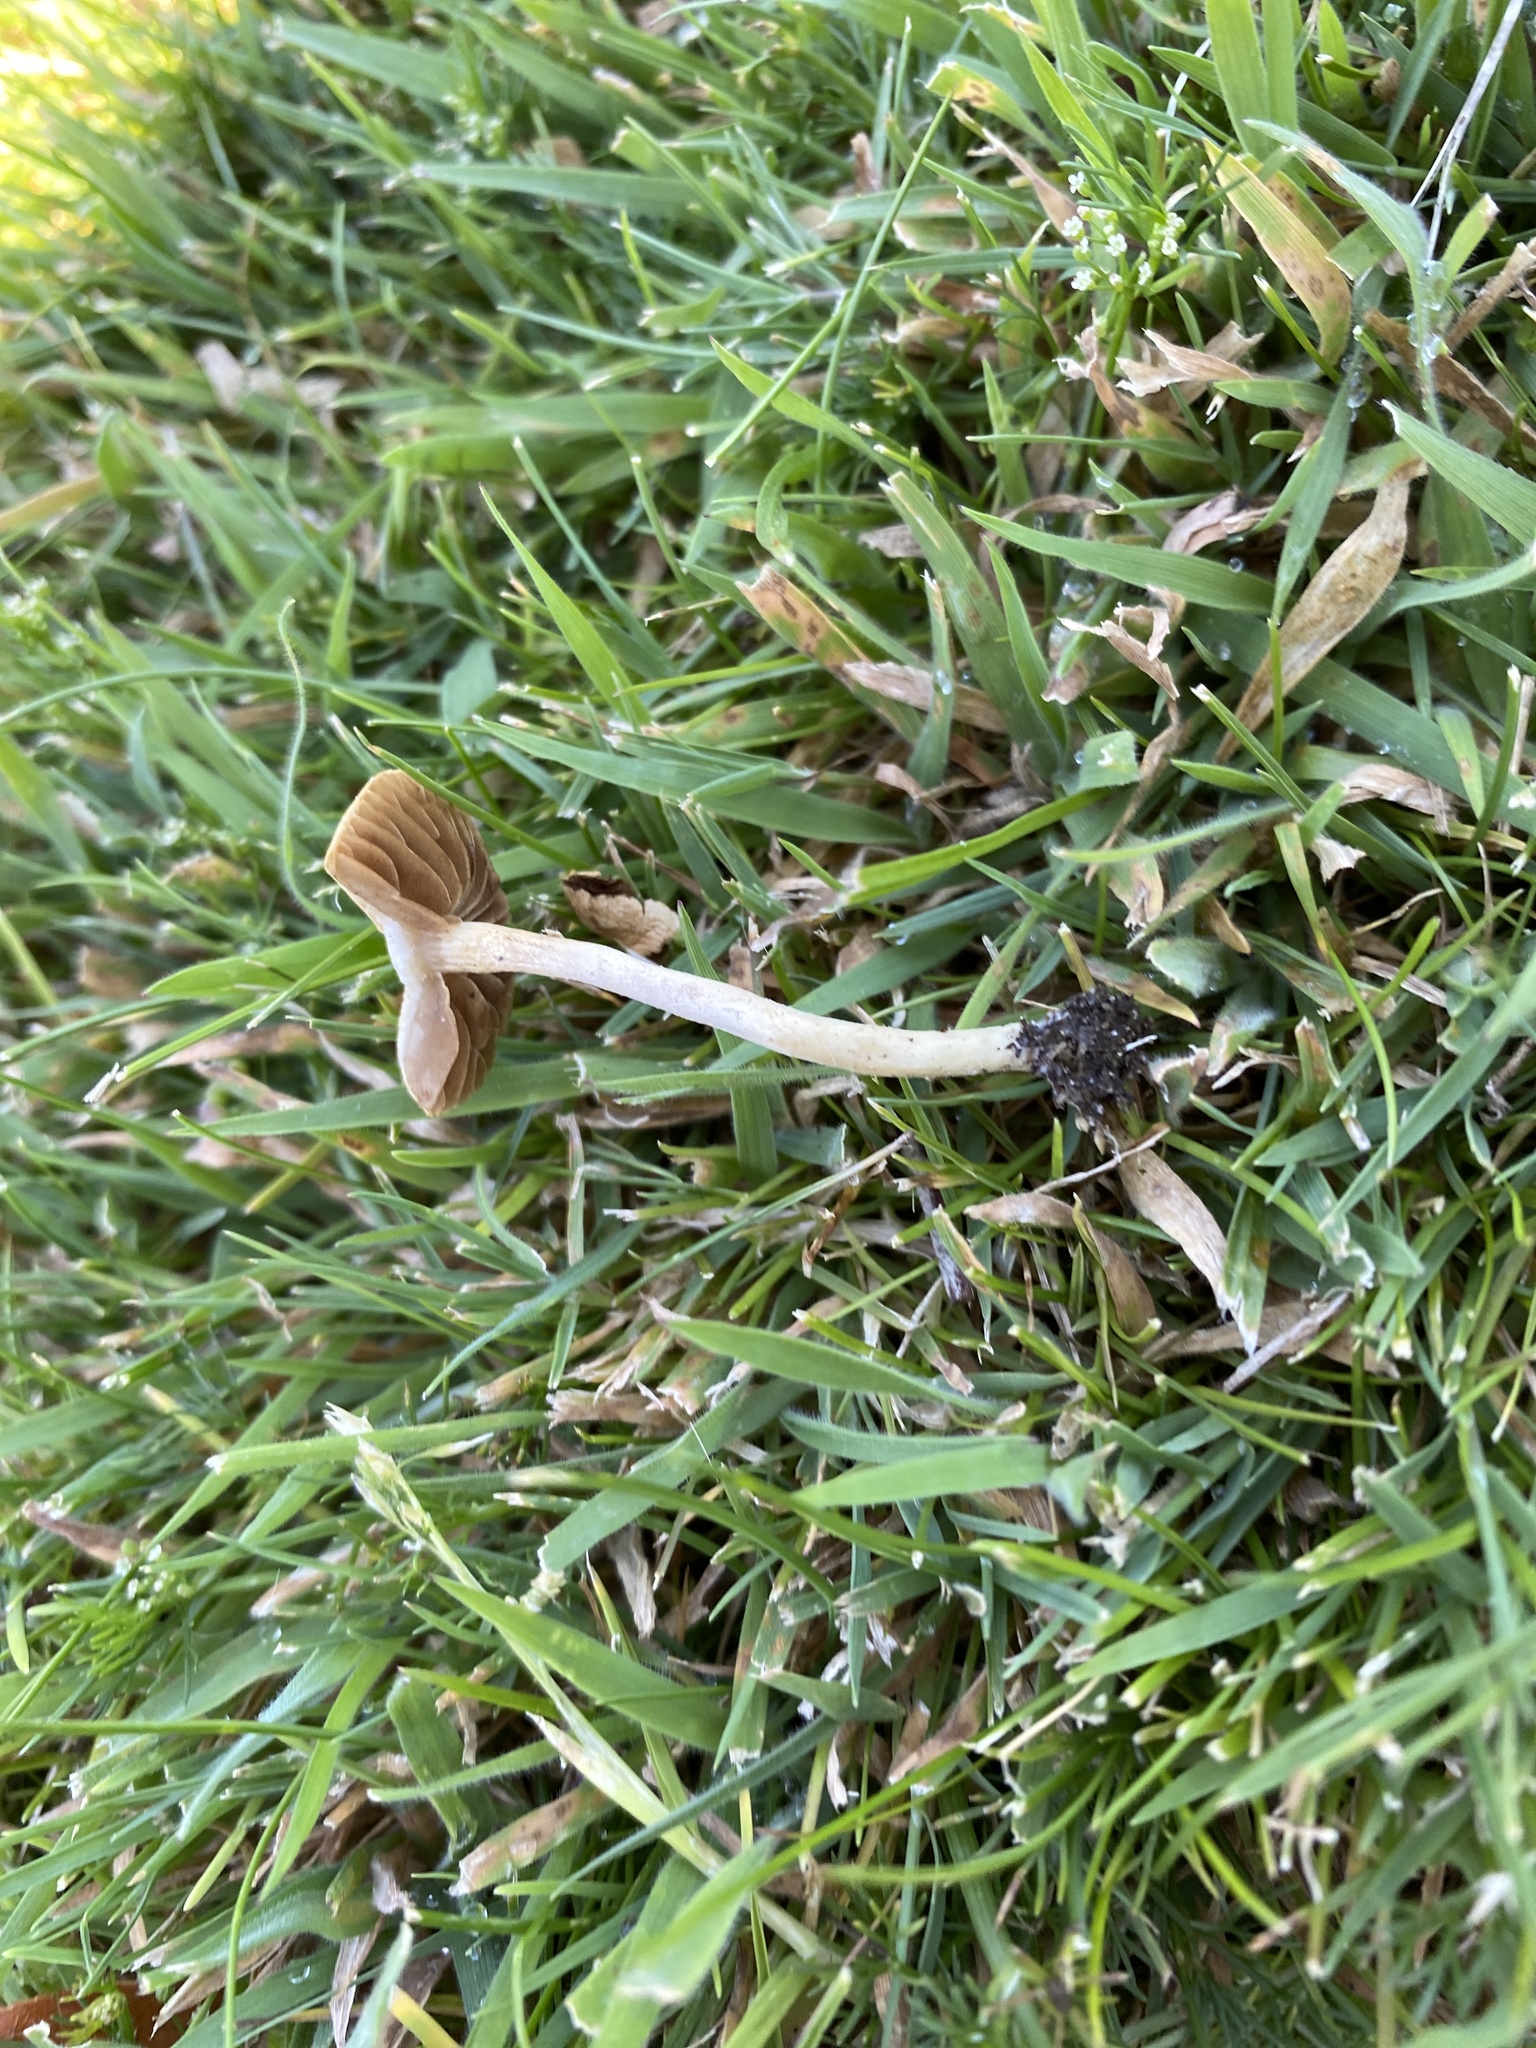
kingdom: Fungi
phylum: Basidiomycota
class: Agaricomycetes
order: Agaricales
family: Strophariaceae
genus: Agrocybe
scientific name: Agrocybe pediades
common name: Common fieldcap
